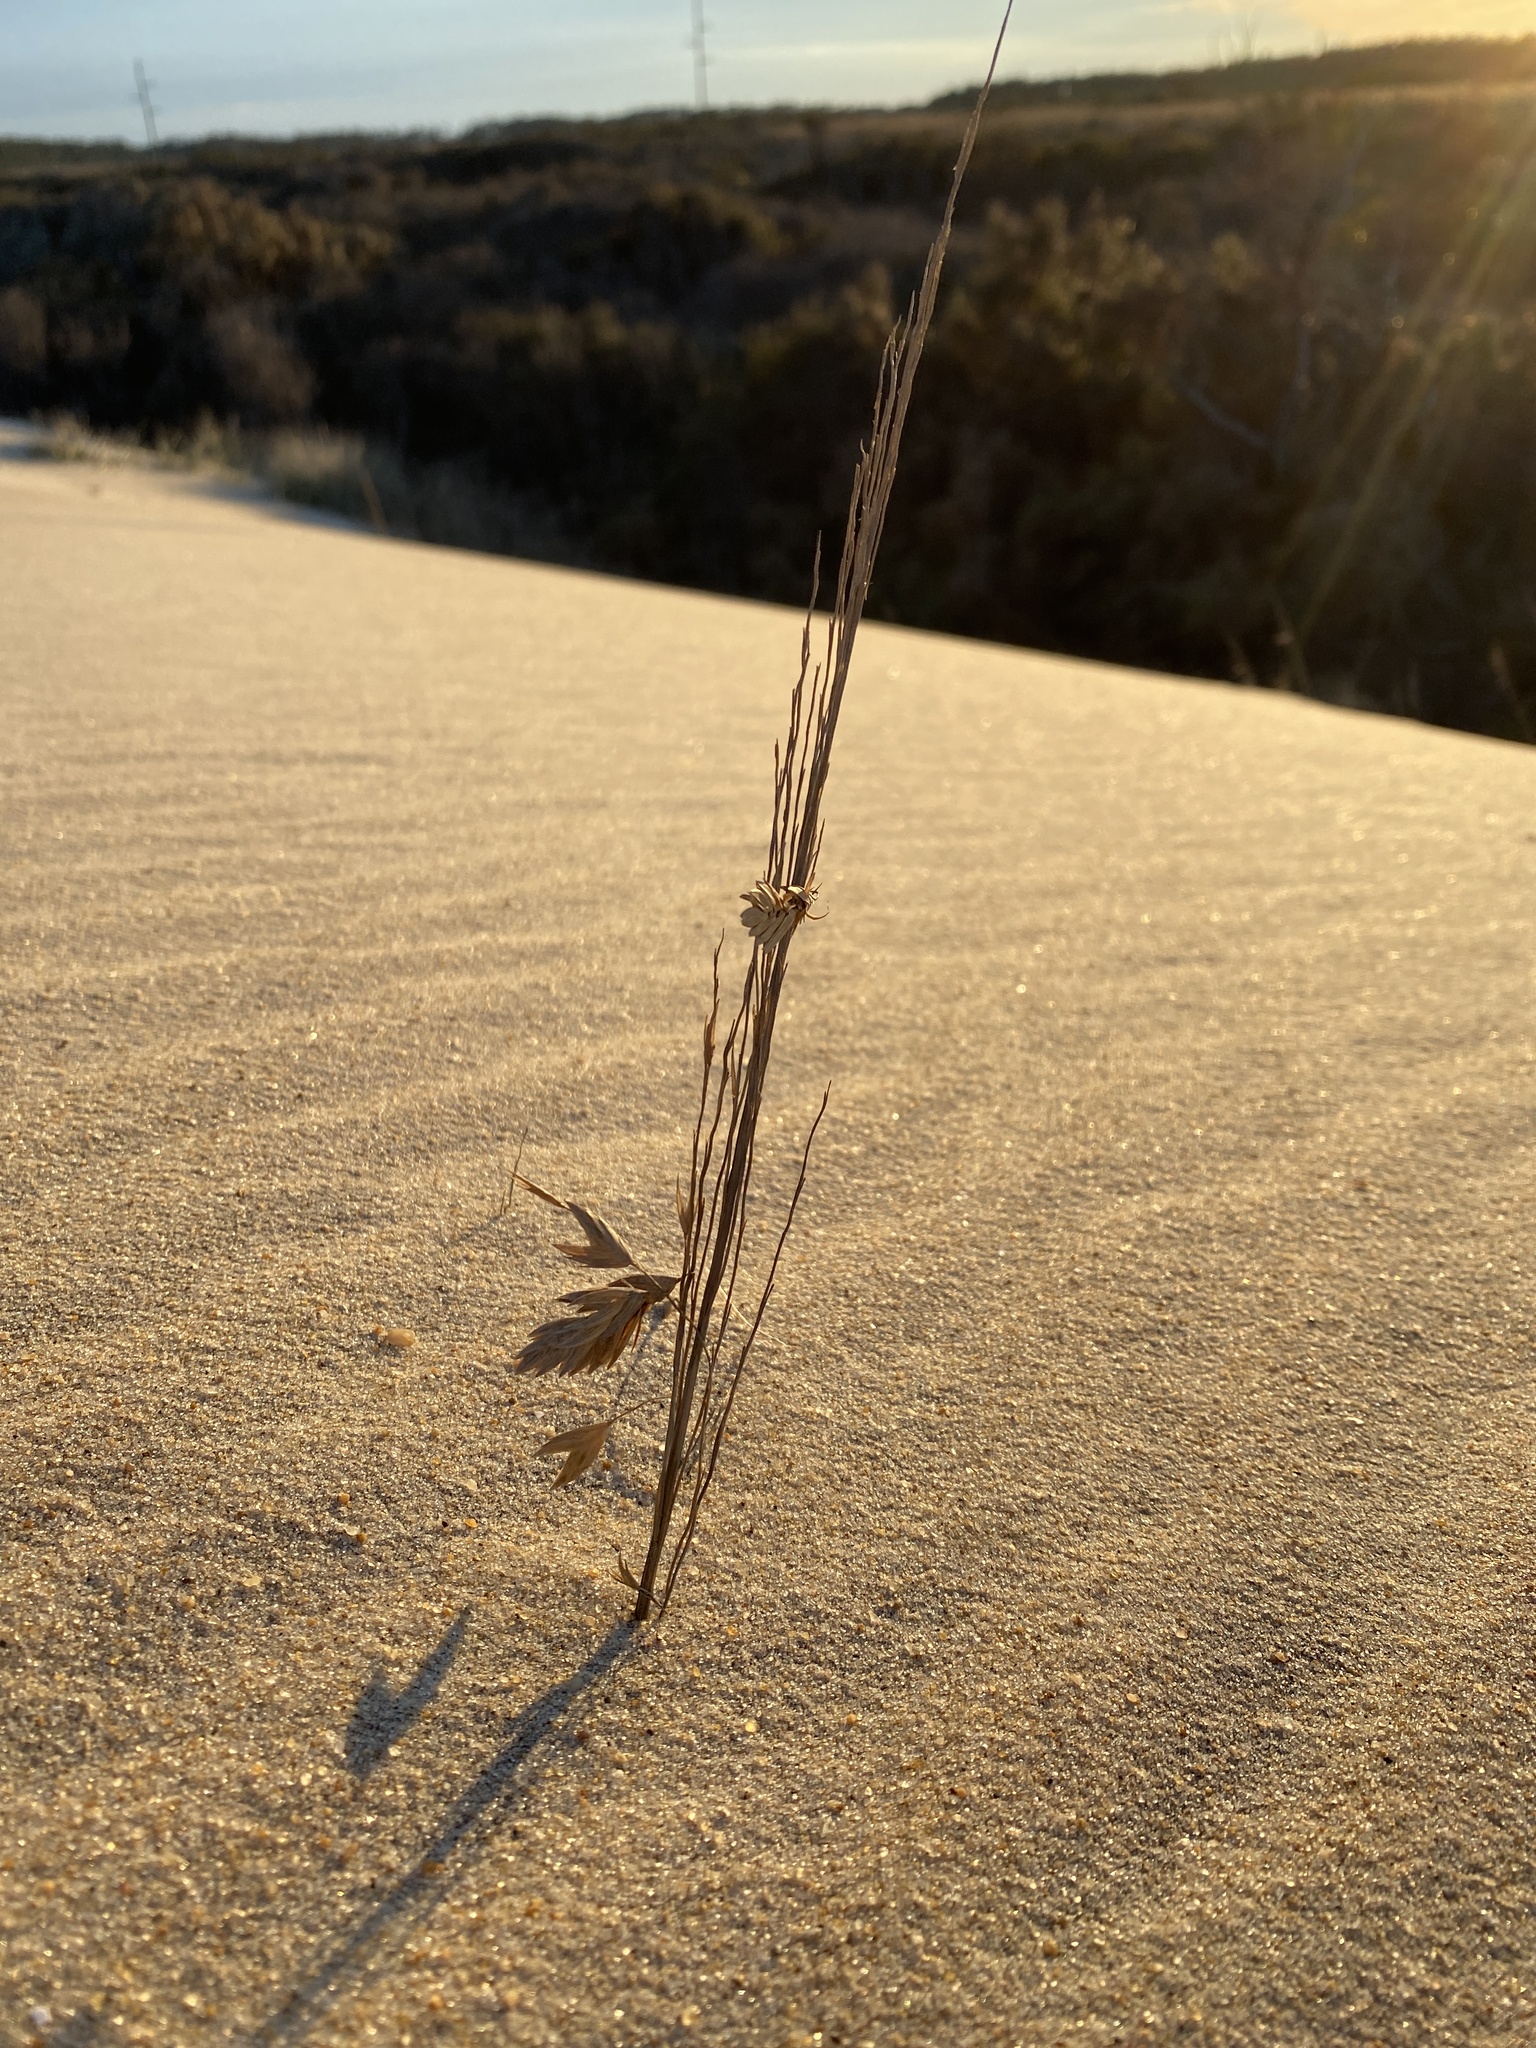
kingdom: Plantae
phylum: Tracheophyta
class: Liliopsida
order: Poales
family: Poaceae
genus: Uniola
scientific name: Uniola paniculata
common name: Seaside-oats
